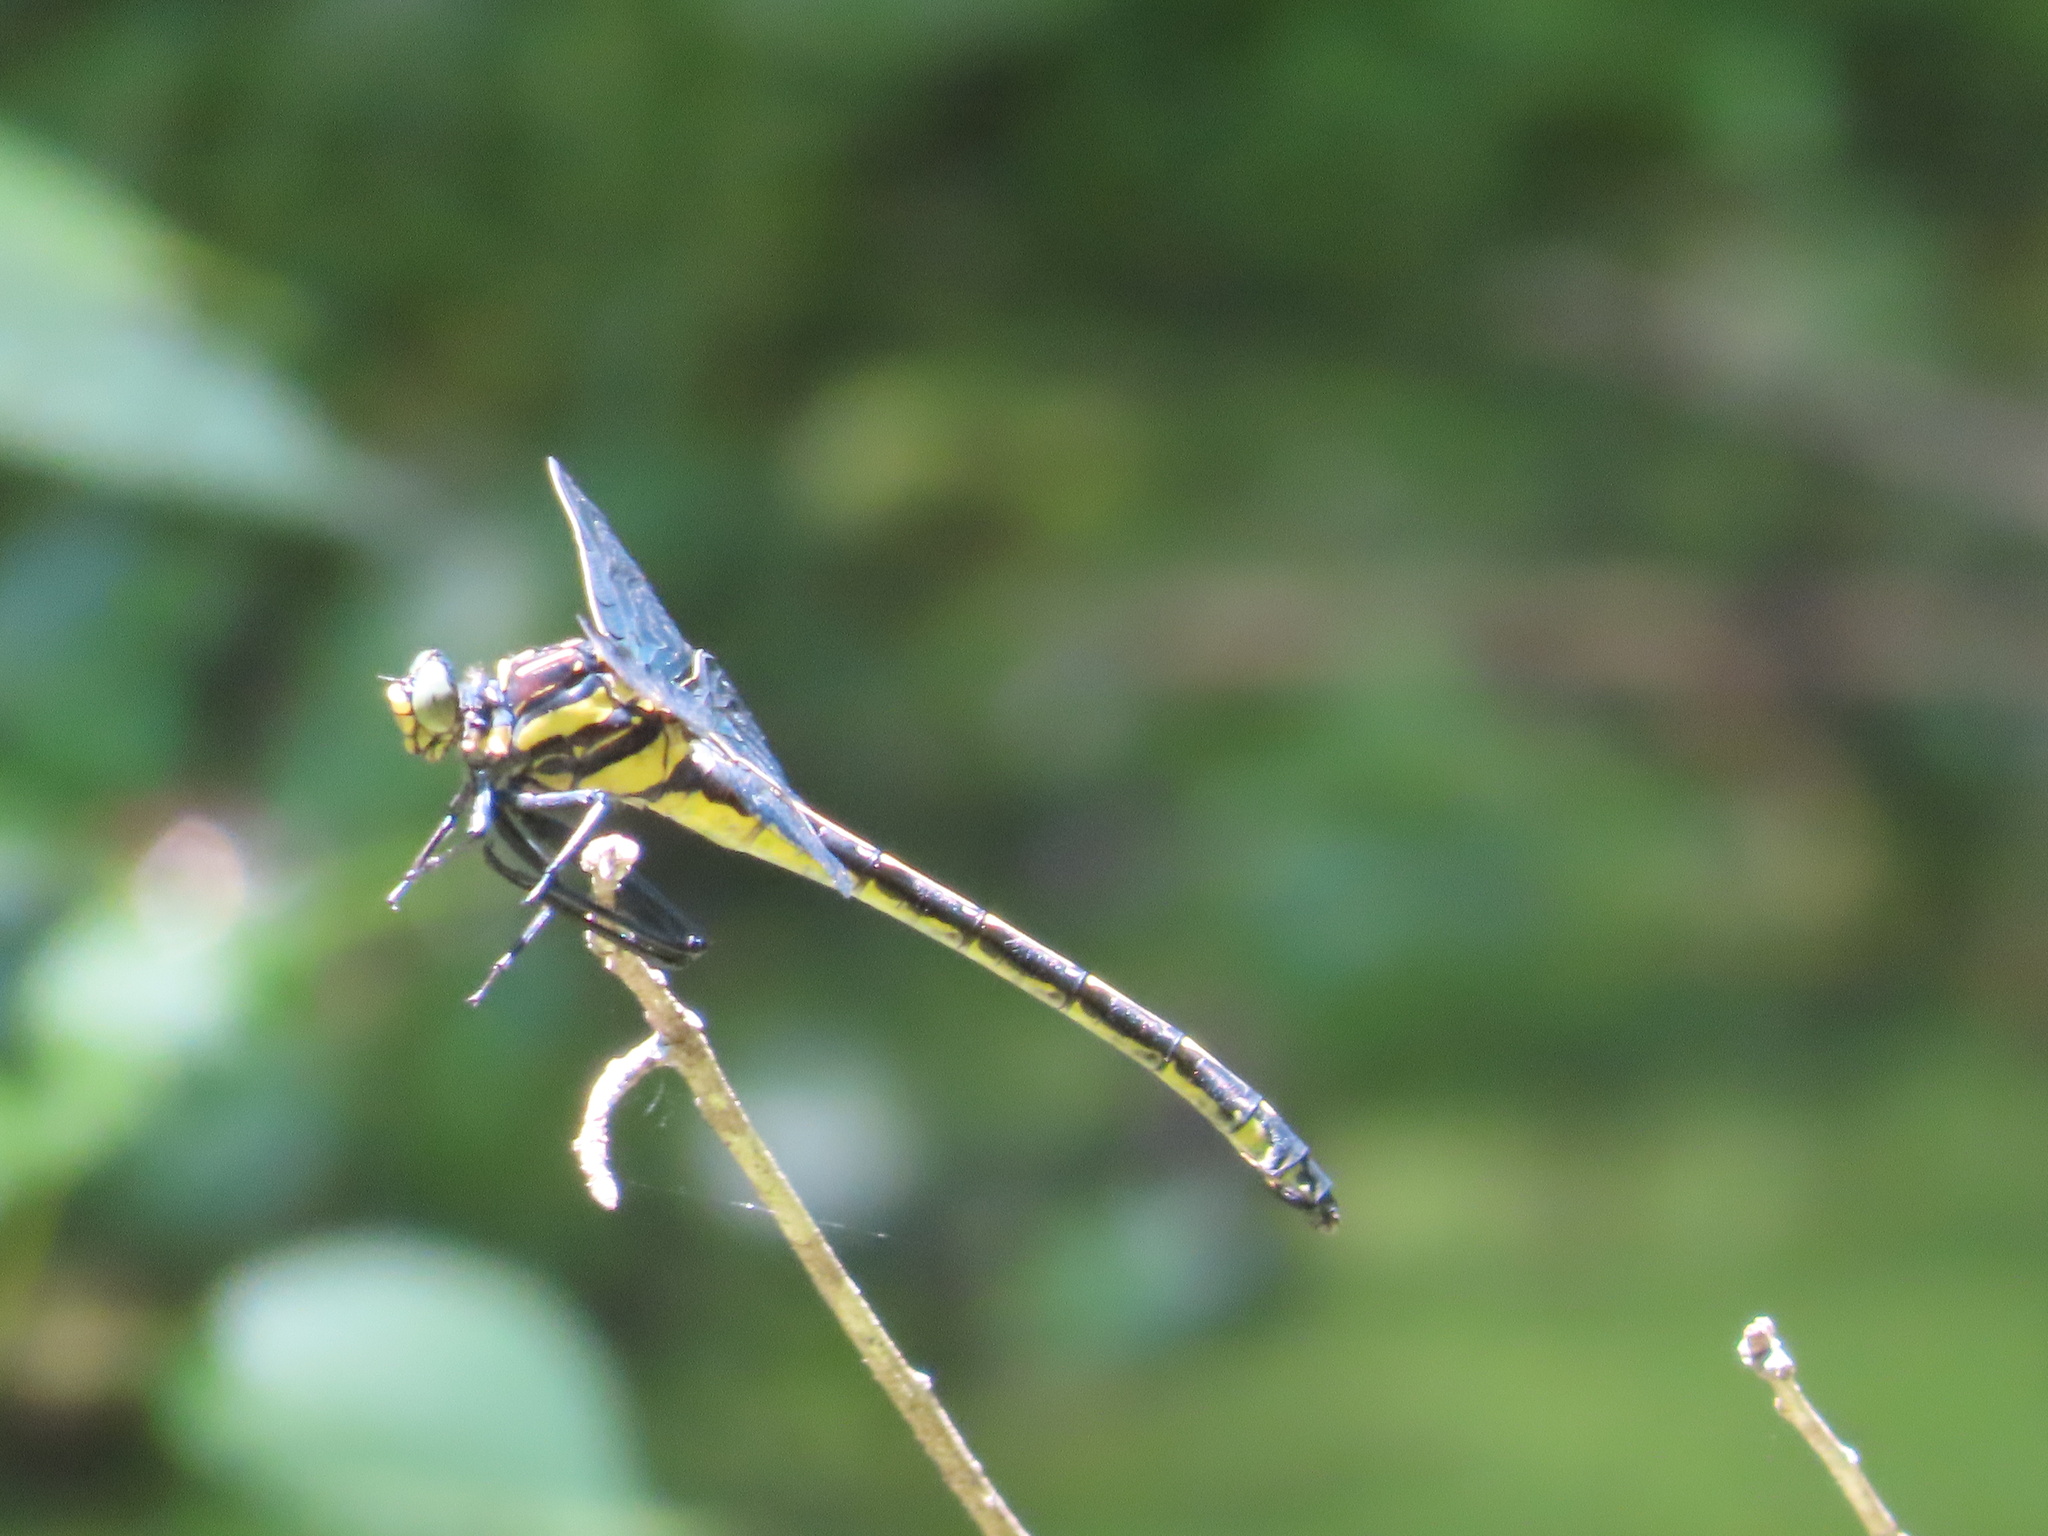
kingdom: Animalia
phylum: Arthropoda
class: Insecta
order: Odonata
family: Gomphidae
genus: Hagenius
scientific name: Hagenius brevistylus
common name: Dragonhunter
